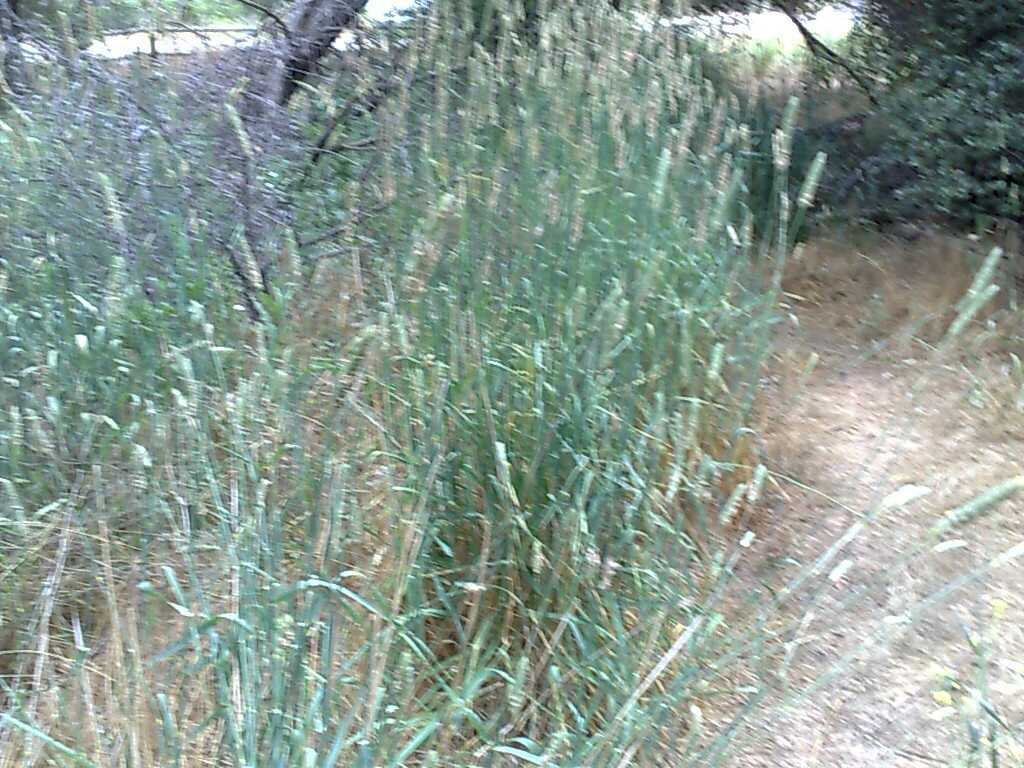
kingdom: Plantae
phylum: Tracheophyta
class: Liliopsida
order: Poales
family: Poaceae
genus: Phalaris
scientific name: Phalaris aquatica
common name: Bulbous canary-grass
